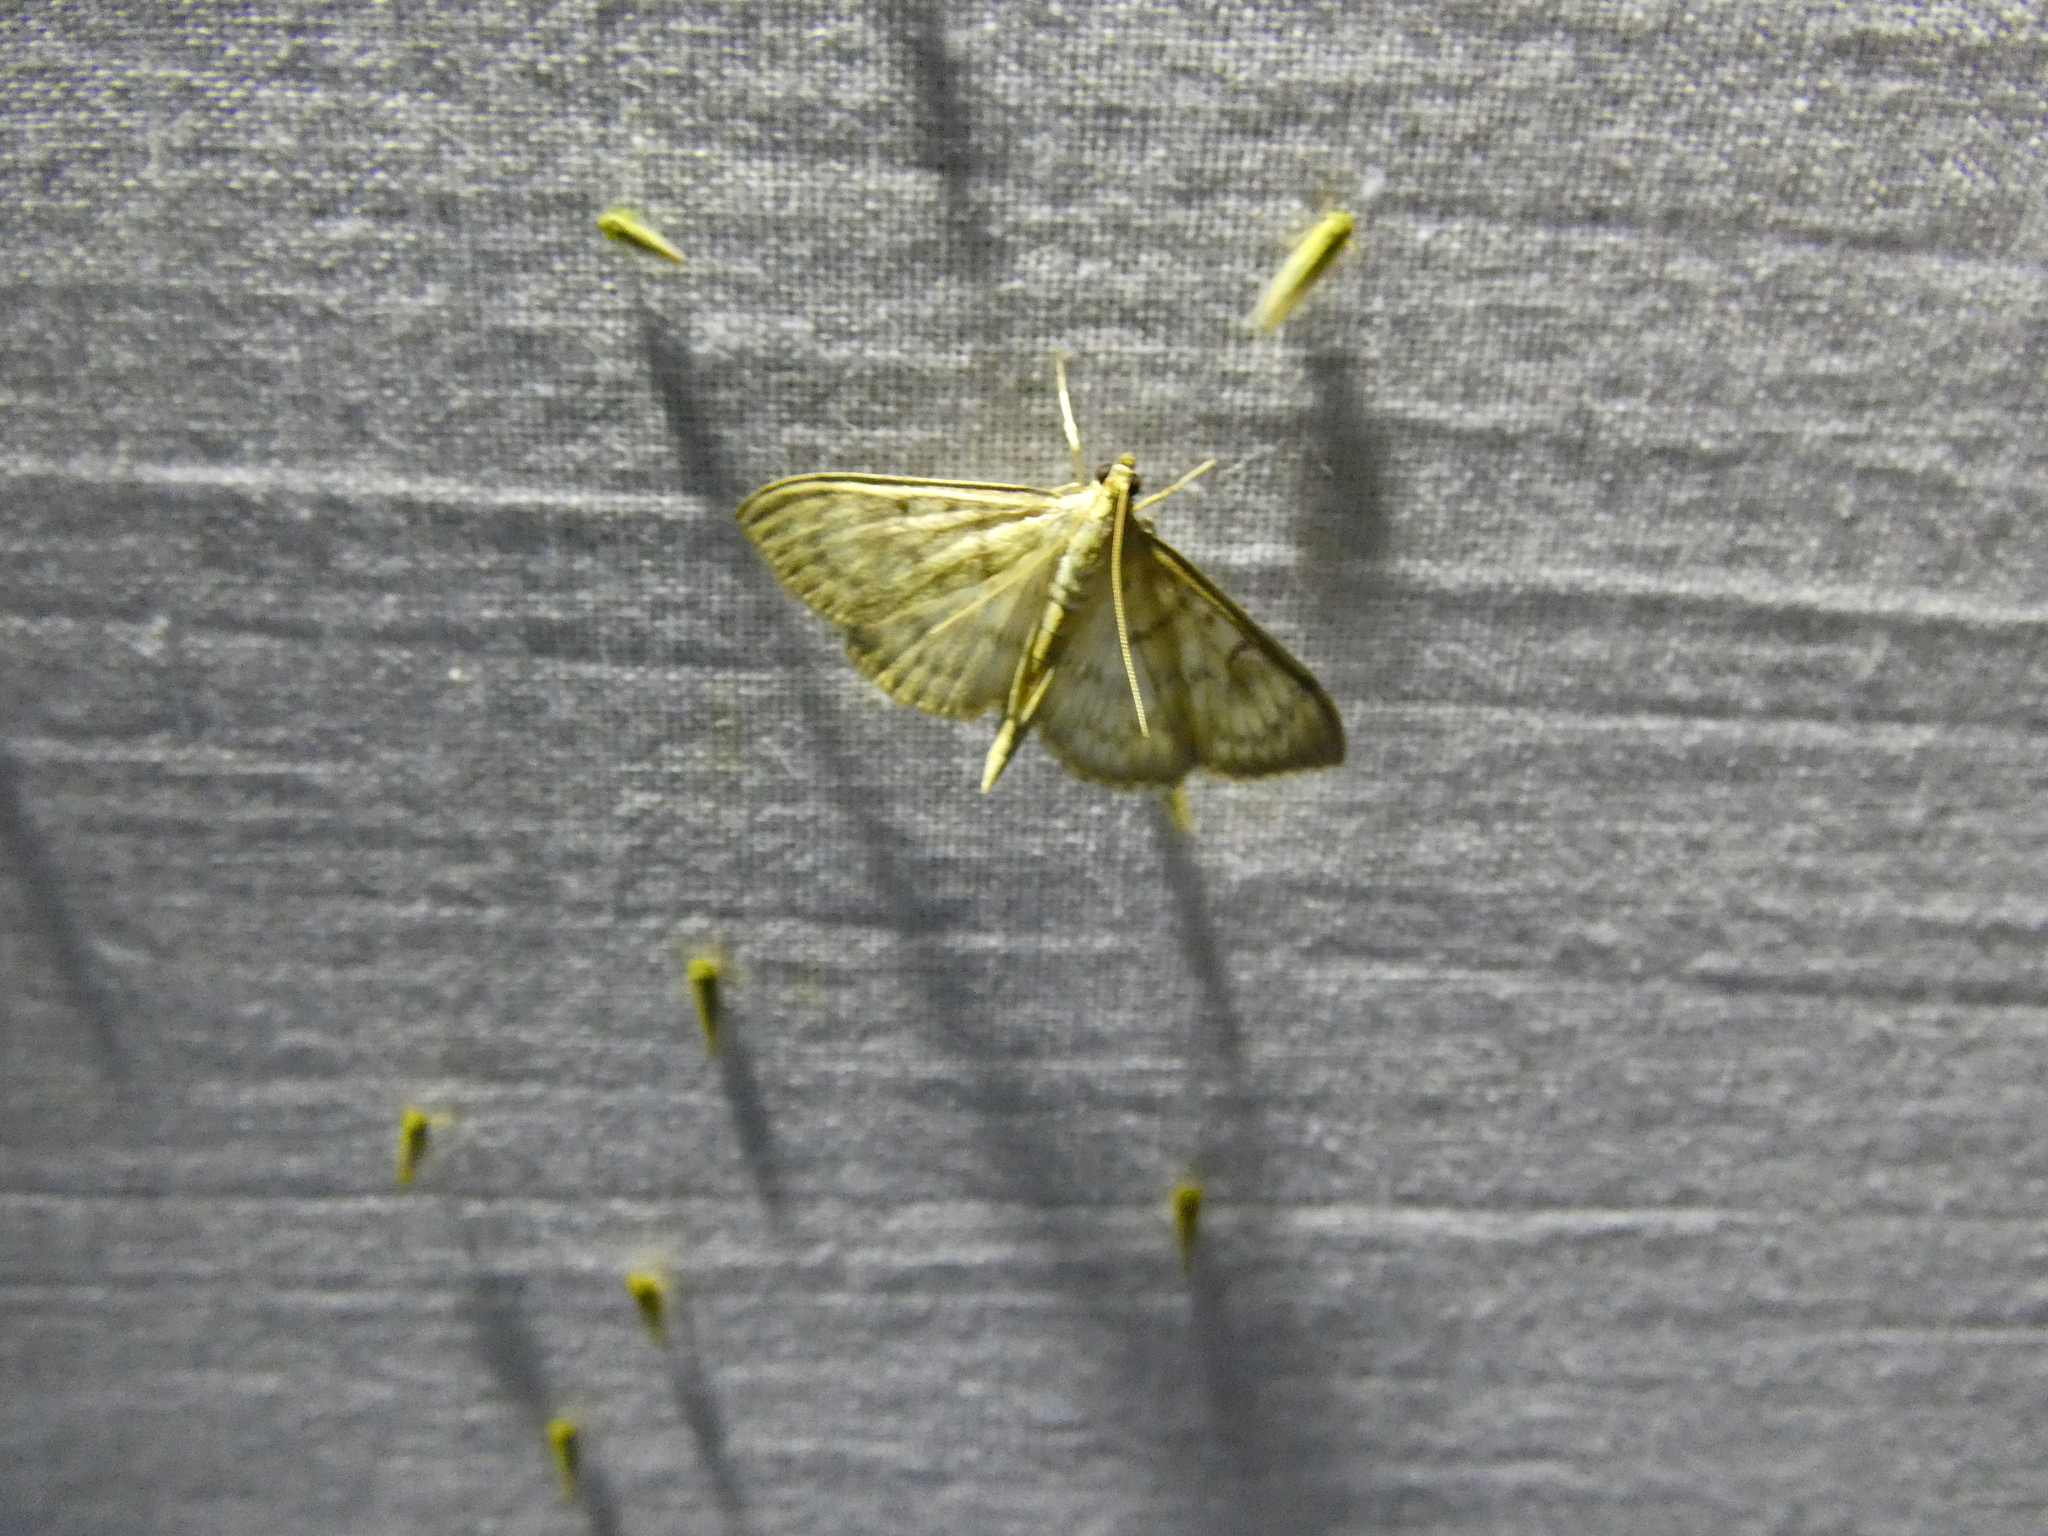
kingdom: Animalia
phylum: Arthropoda
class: Insecta
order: Lepidoptera
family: Crambidae
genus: Patania
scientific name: Patania ruralis
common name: Mother of pearl
